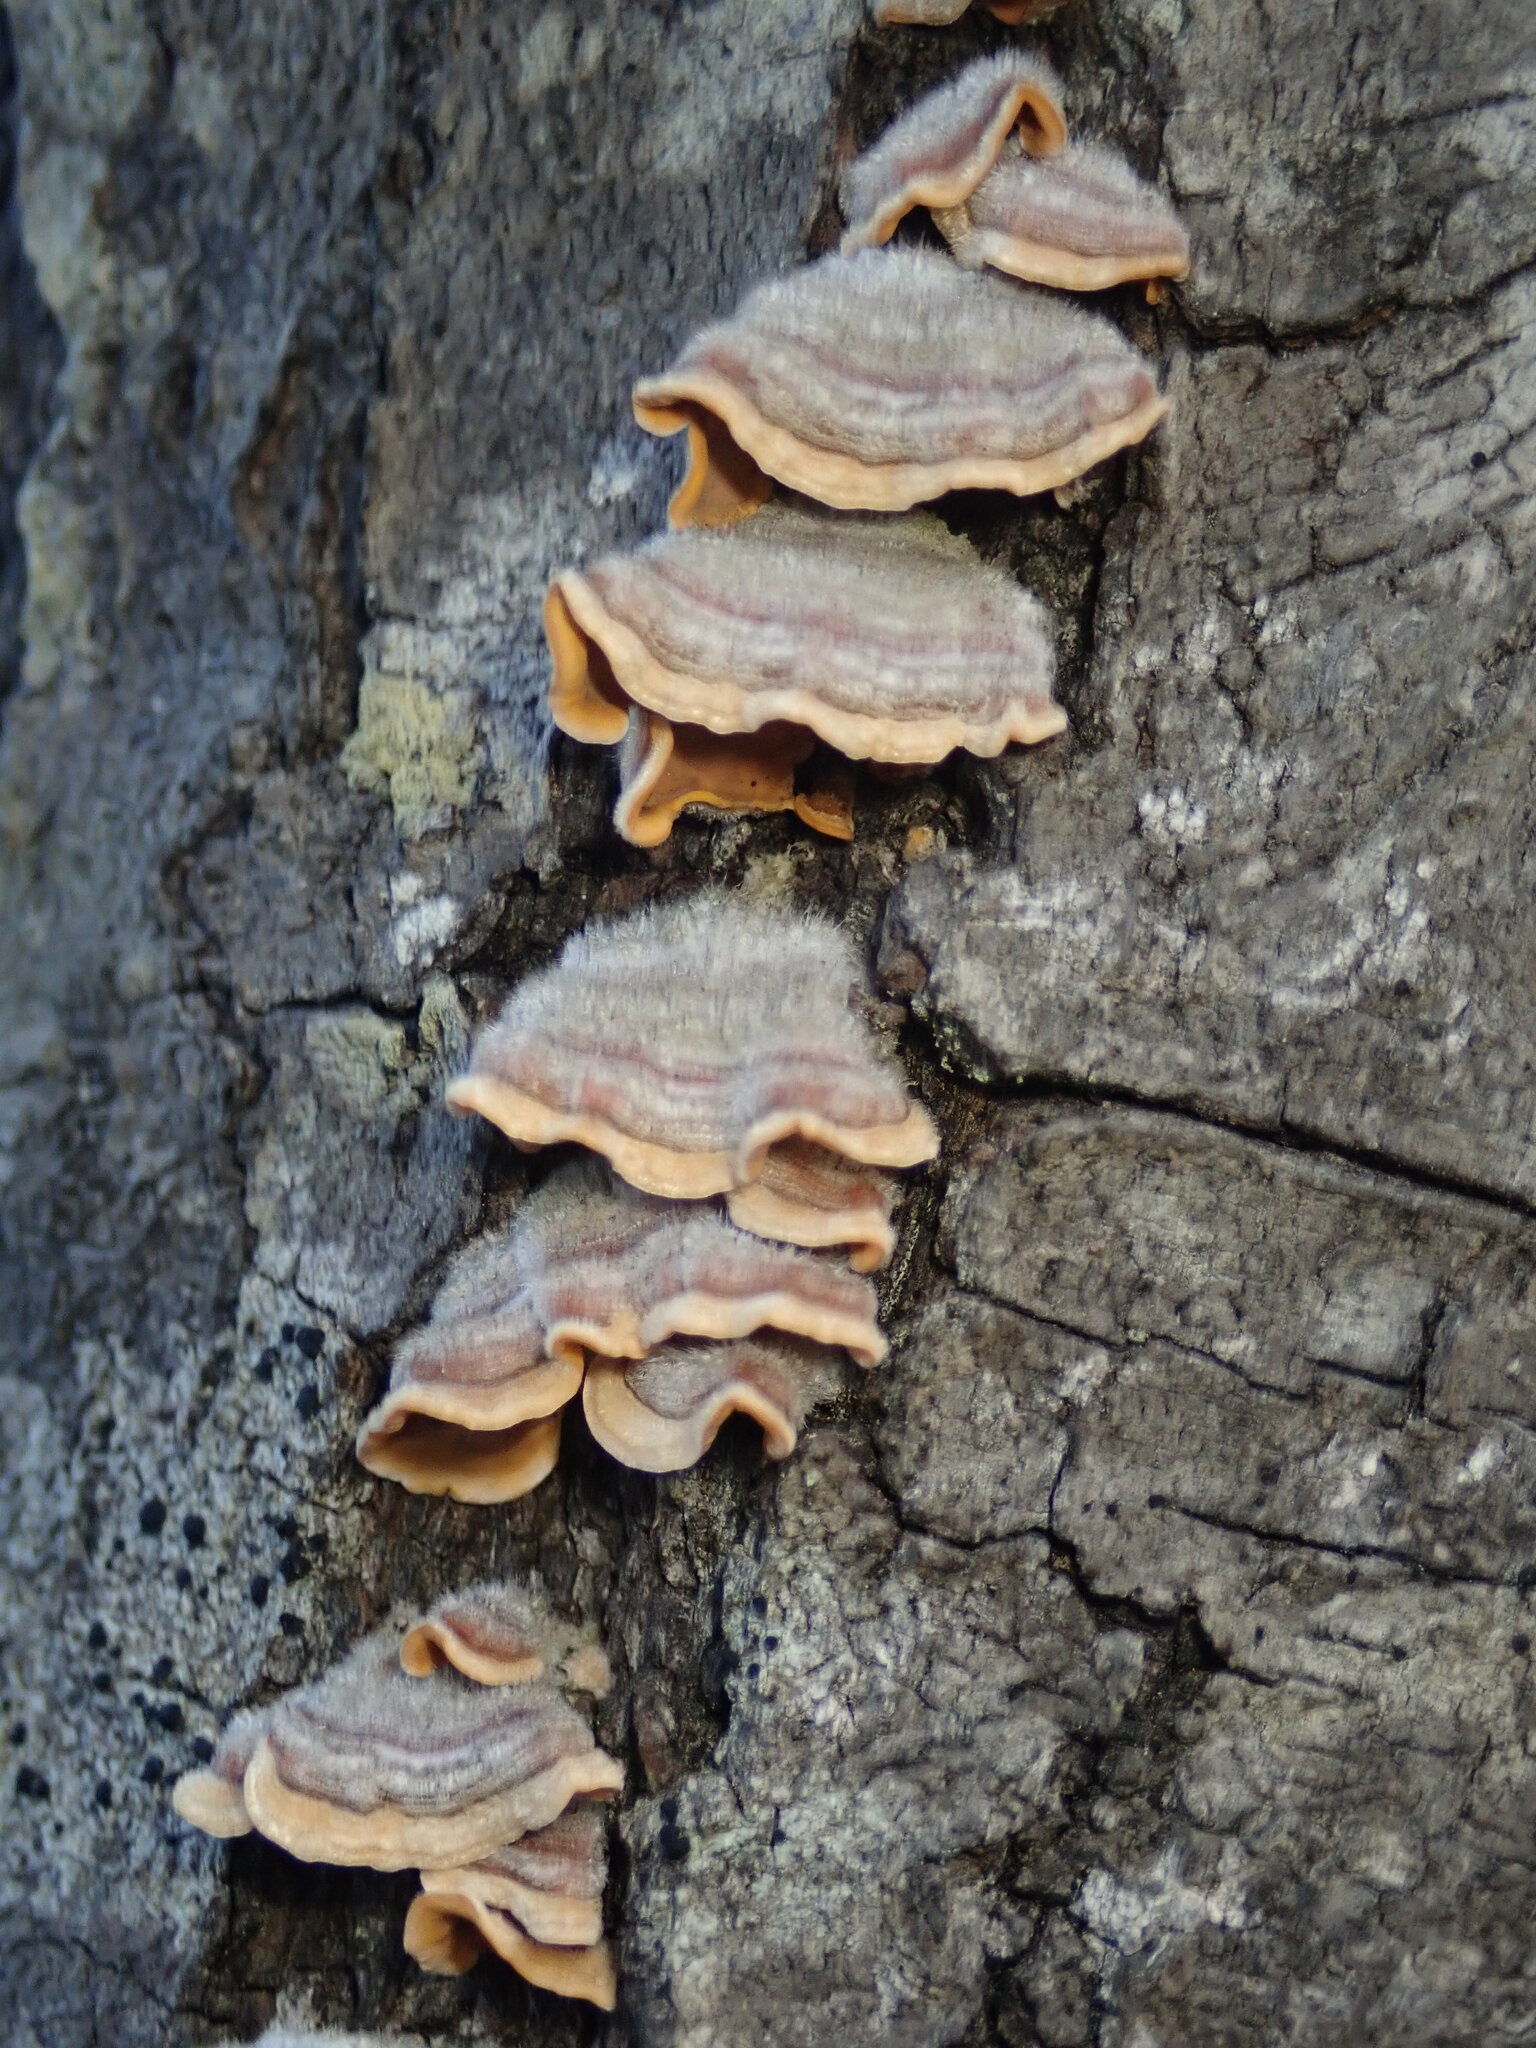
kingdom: Fungi
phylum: Basidiomycota
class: Agaricomycetes
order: Russulales
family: Stereaceae
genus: Stereum
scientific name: Stereum hirsutum
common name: Hairy curtain crust
